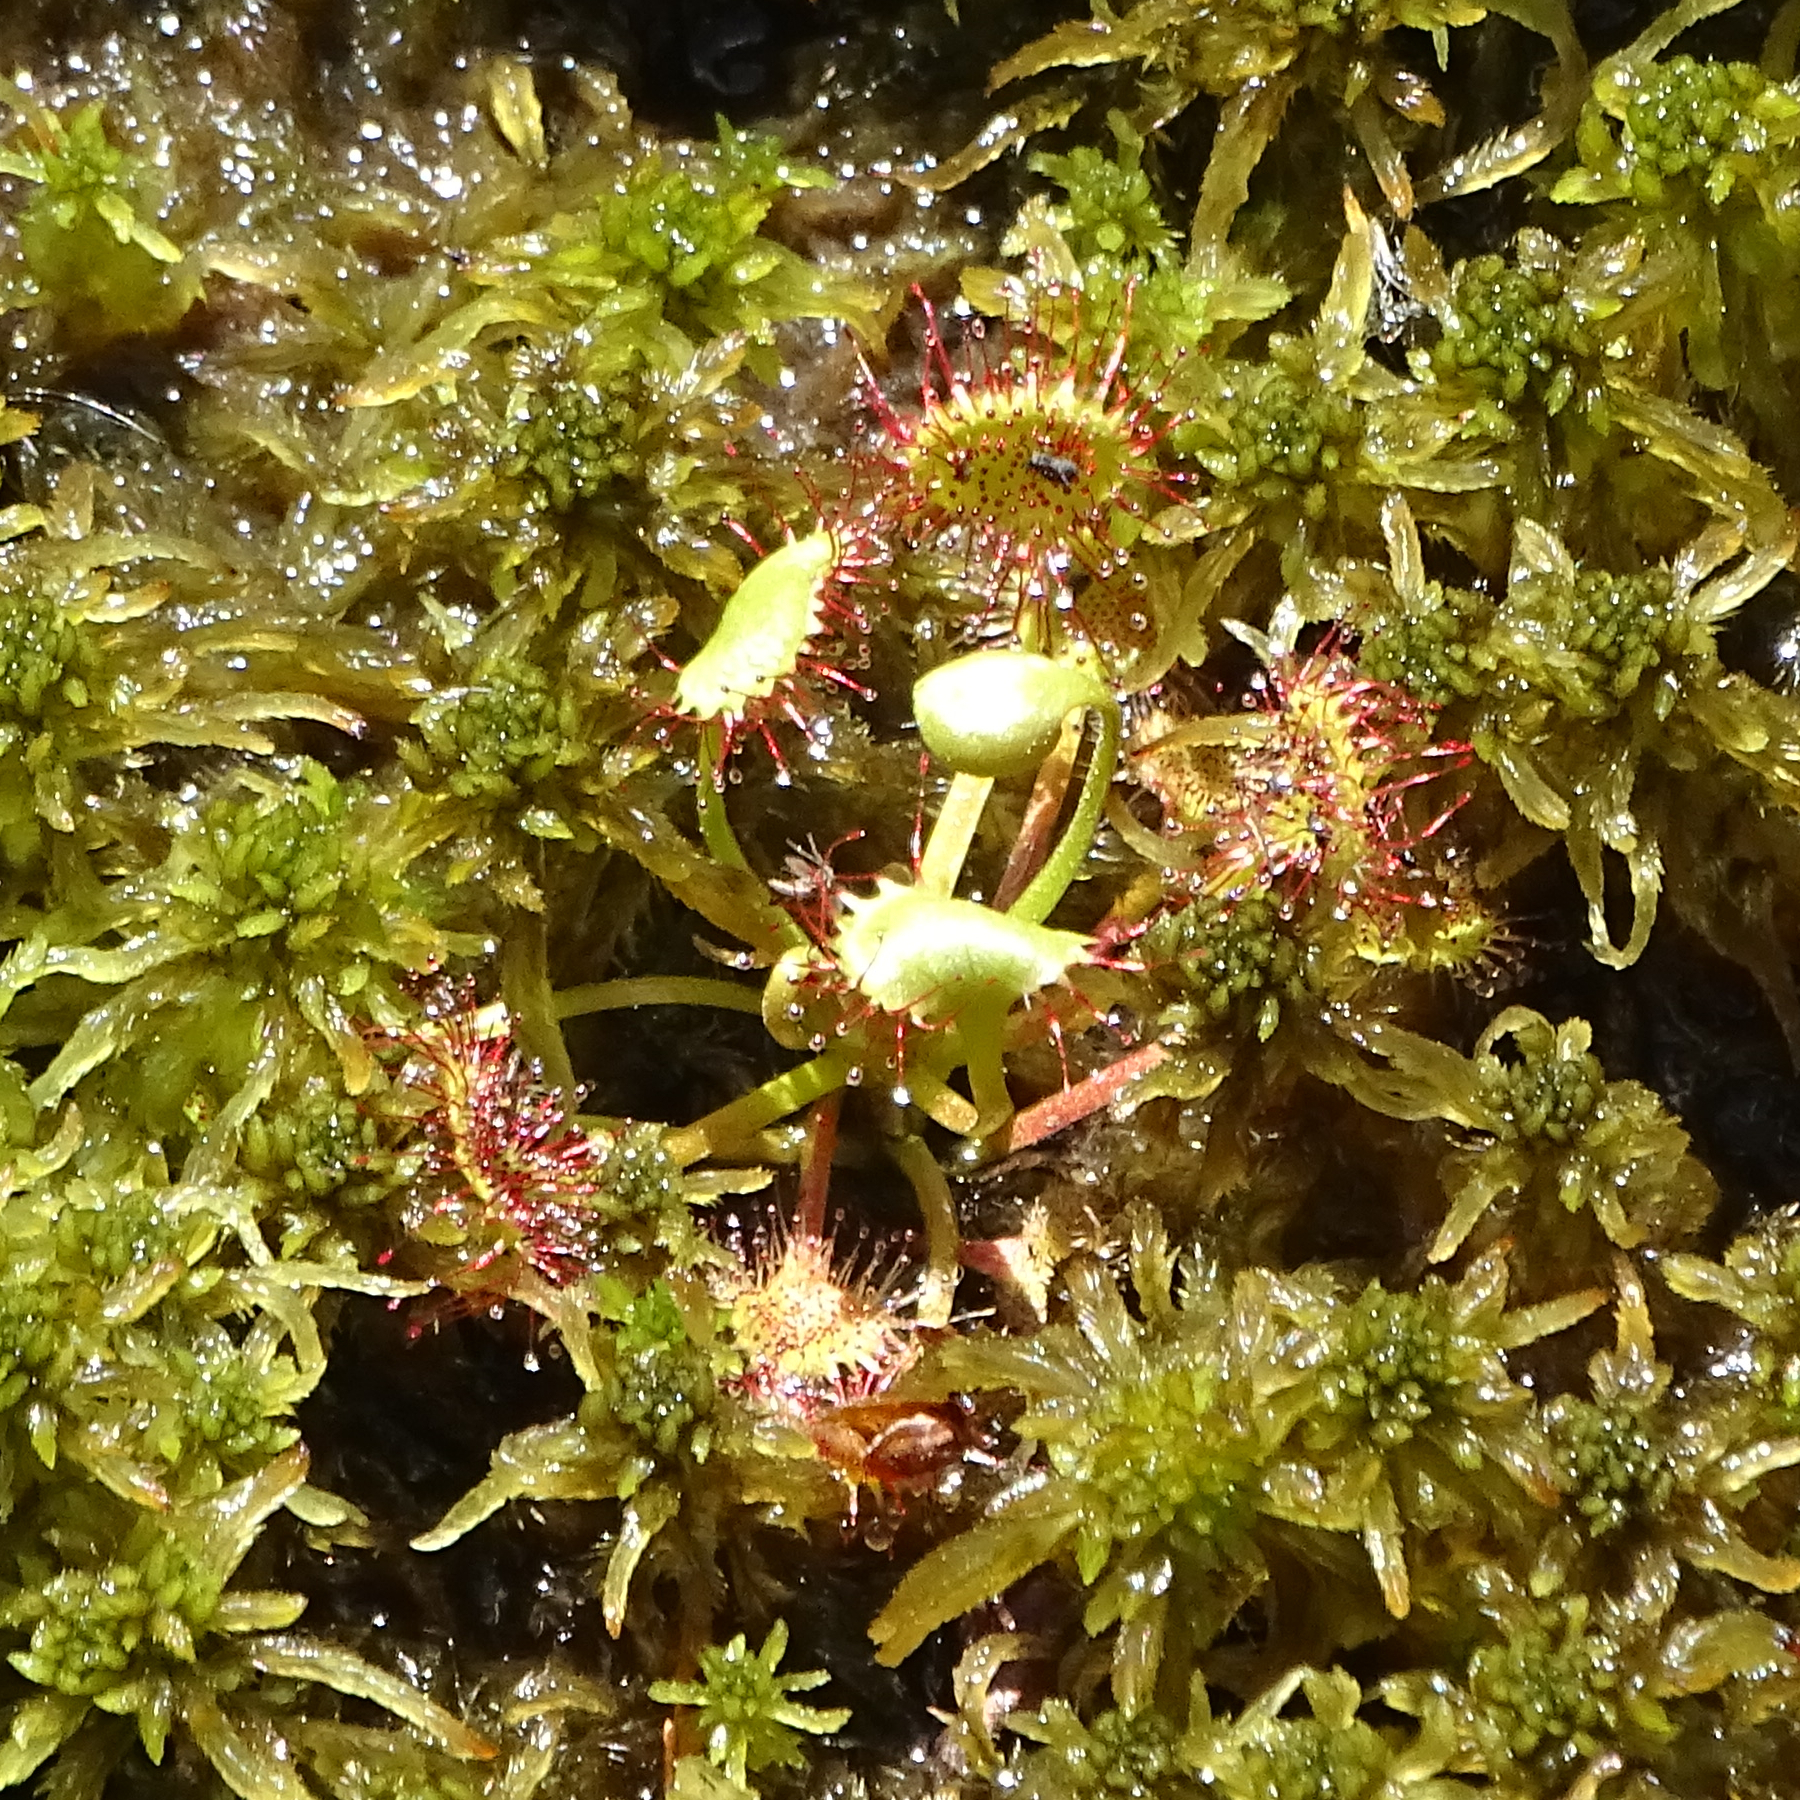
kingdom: Plantae
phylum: Tracheophyta
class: Magnoliopsida
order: Caryophyllales
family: Droseraceae
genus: Drosera
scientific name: Drosera rotundifolia
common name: Round-leaved sundew
